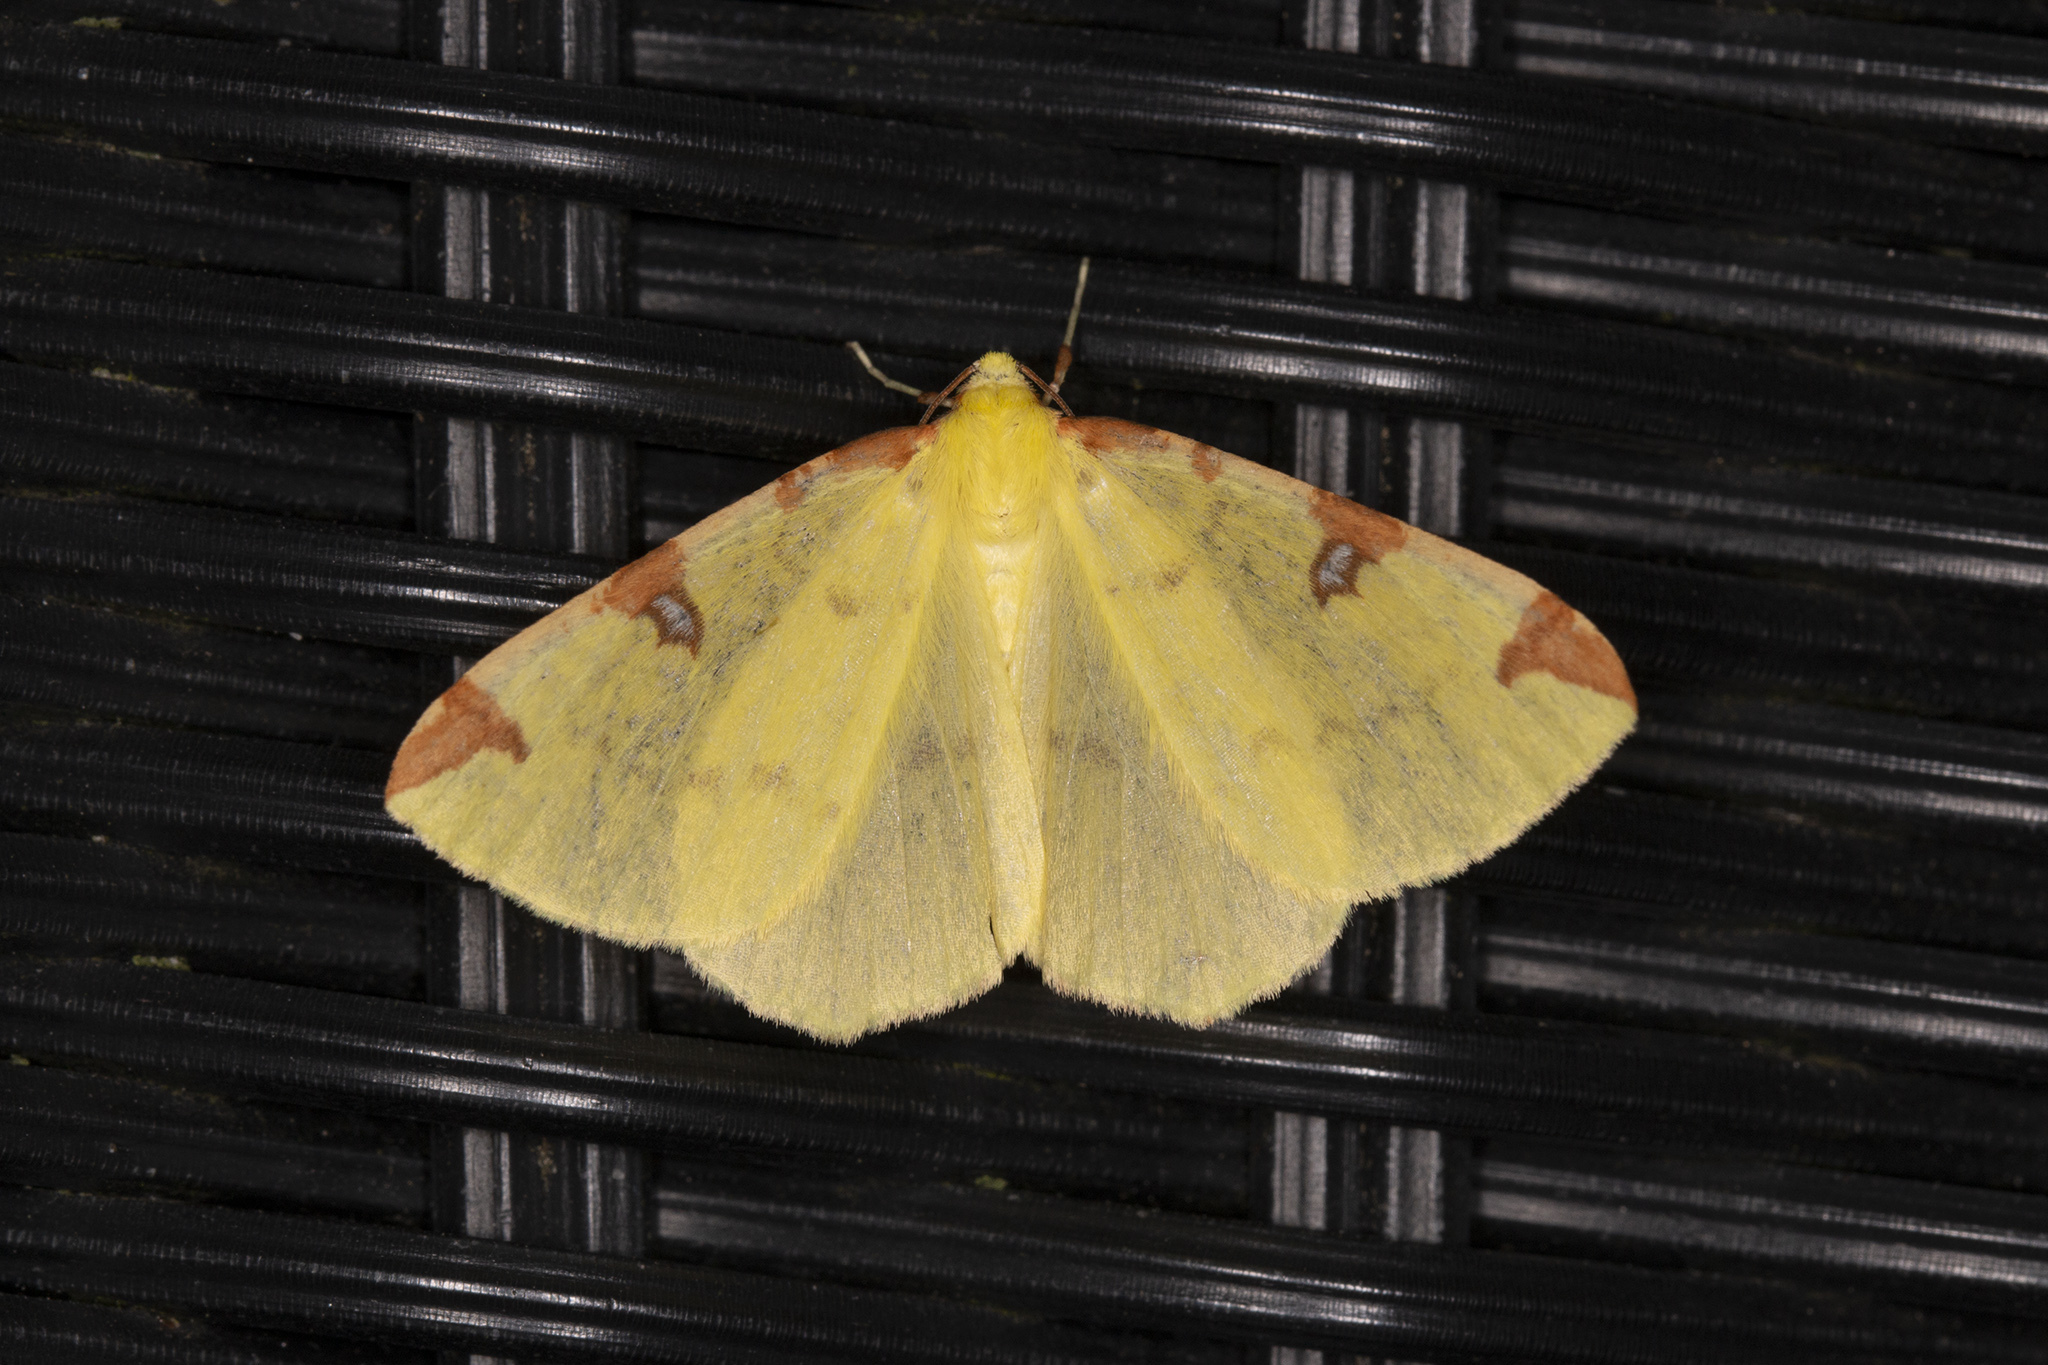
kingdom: Animalia
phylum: Arthropoda
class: Insecta
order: Lepidoptera
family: Geometridae
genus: Opisthograptis
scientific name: Opisthograptis luteolata
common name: Brimstone moth
